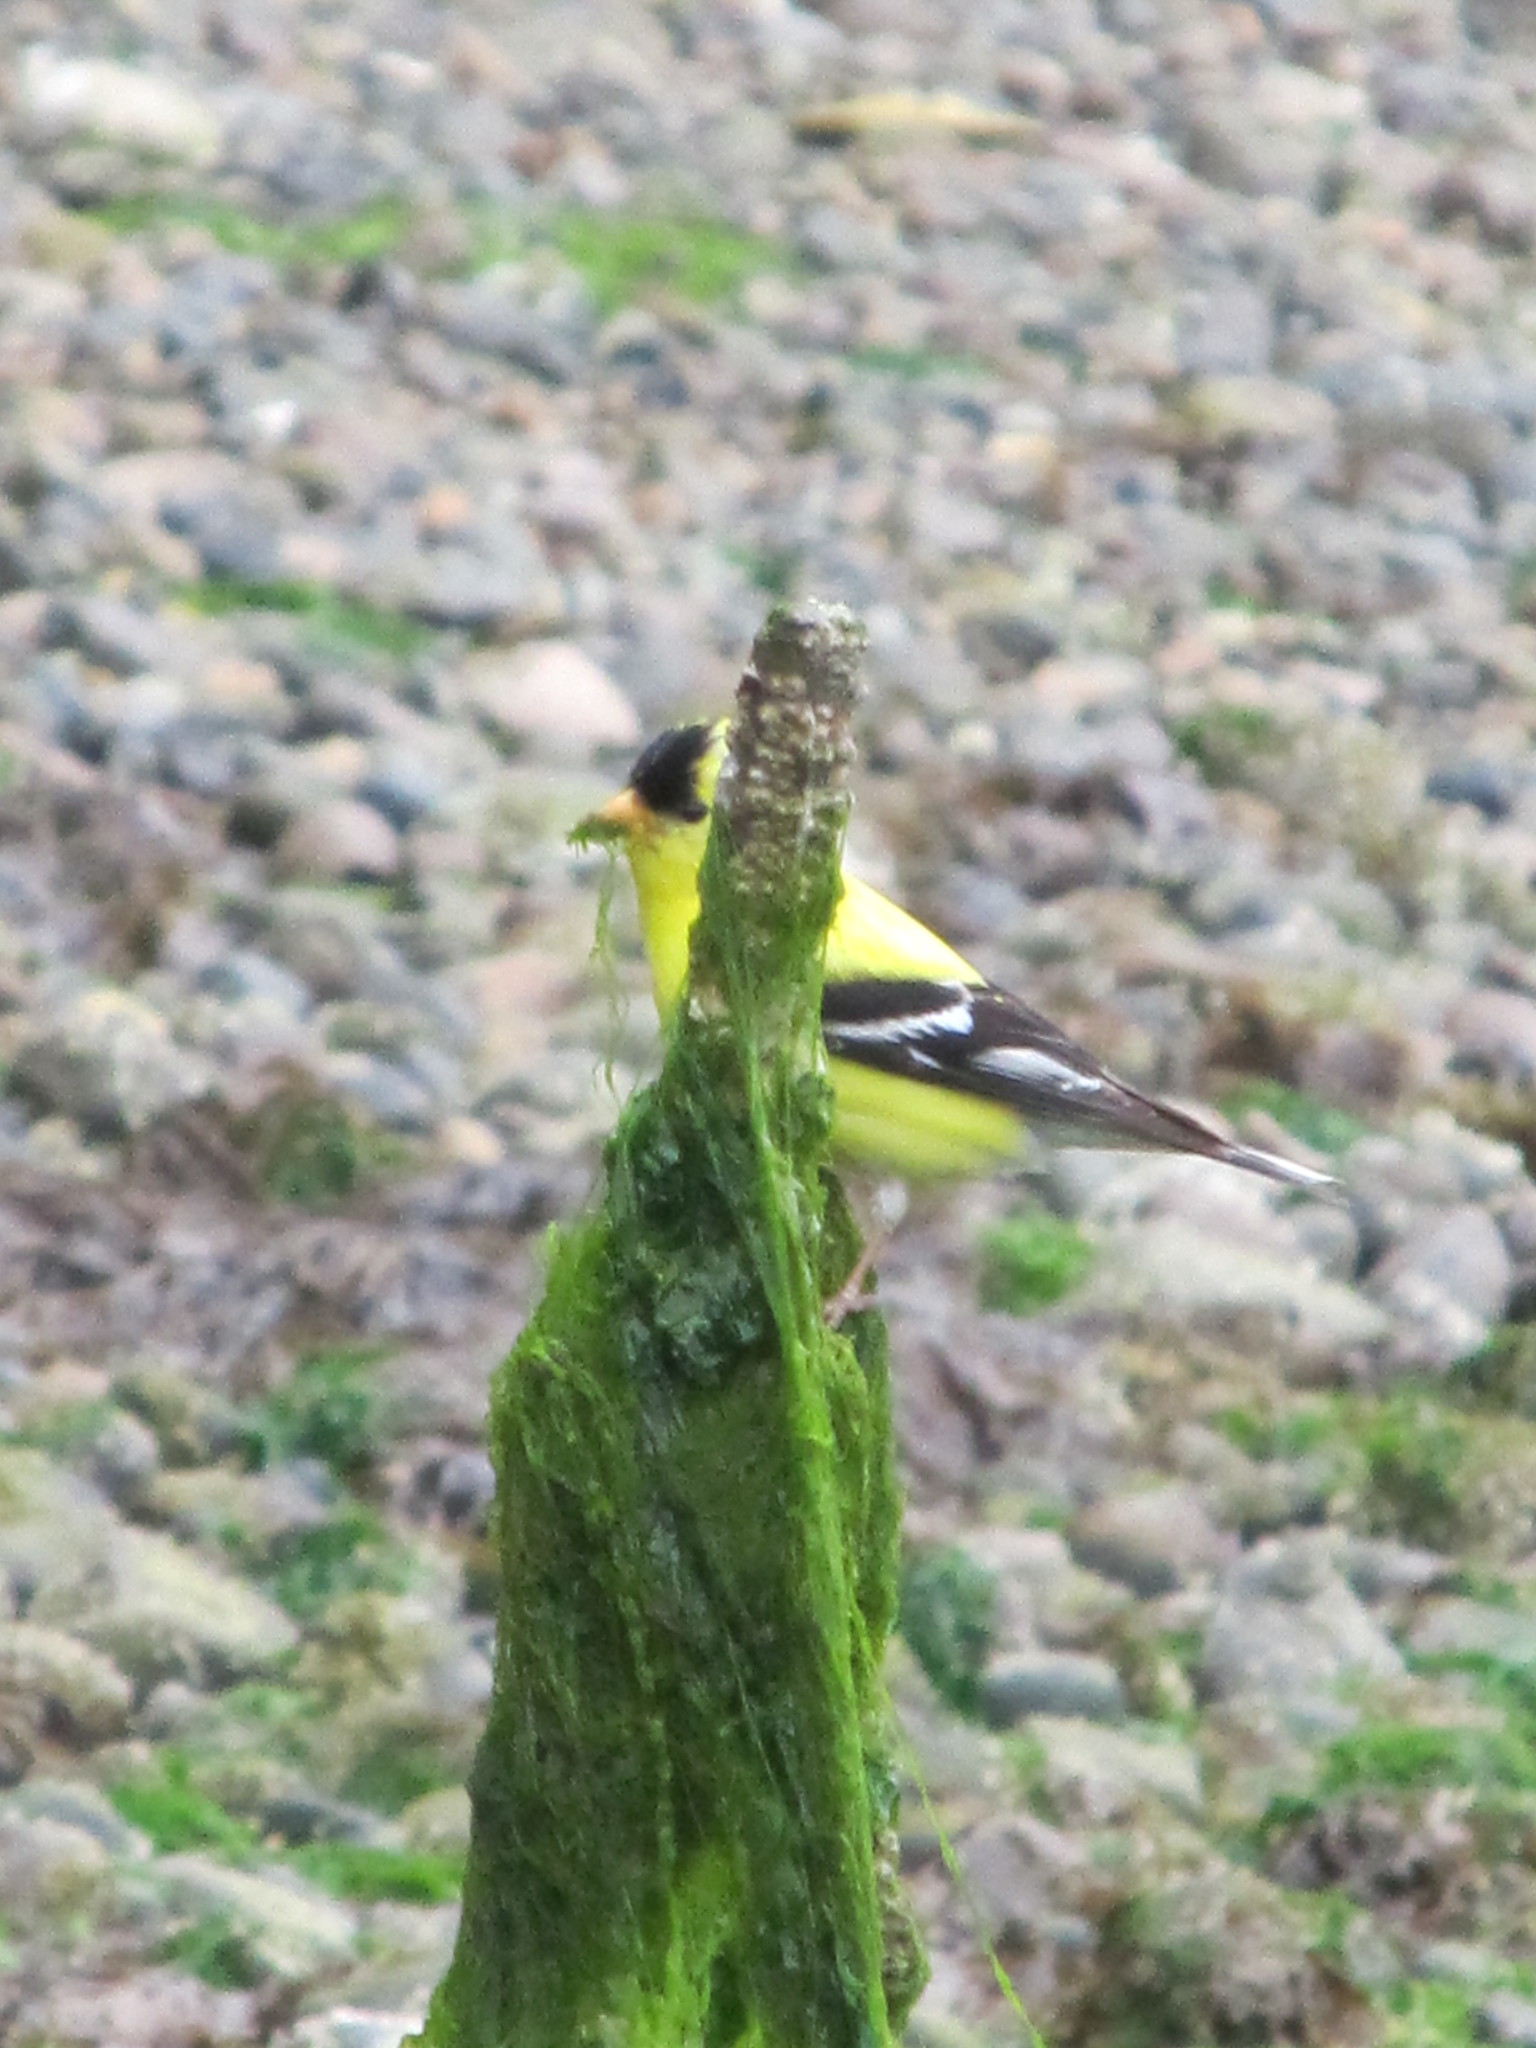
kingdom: Animalia
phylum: Chordata
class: Aves
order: Passeriformes
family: Fringillidae
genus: Spinus
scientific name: Spinus tristis
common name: American goldfinch
